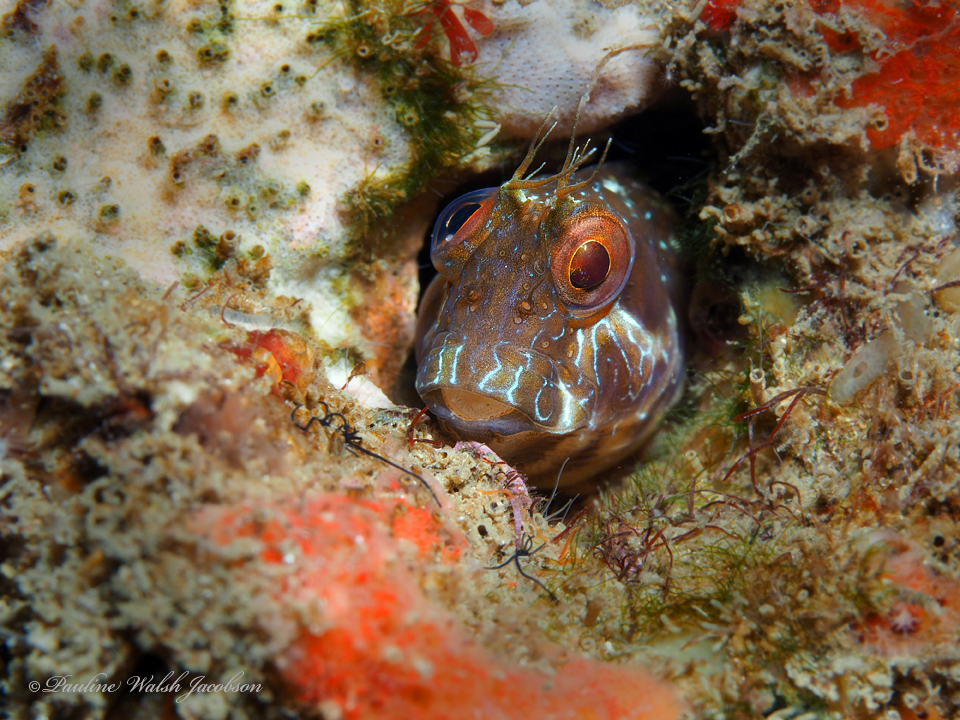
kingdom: Animalia
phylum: Chordata
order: Perciformes
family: Blenniidae
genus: Parablennius
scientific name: Parablennius marmoreus
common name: Seaweed blenny
